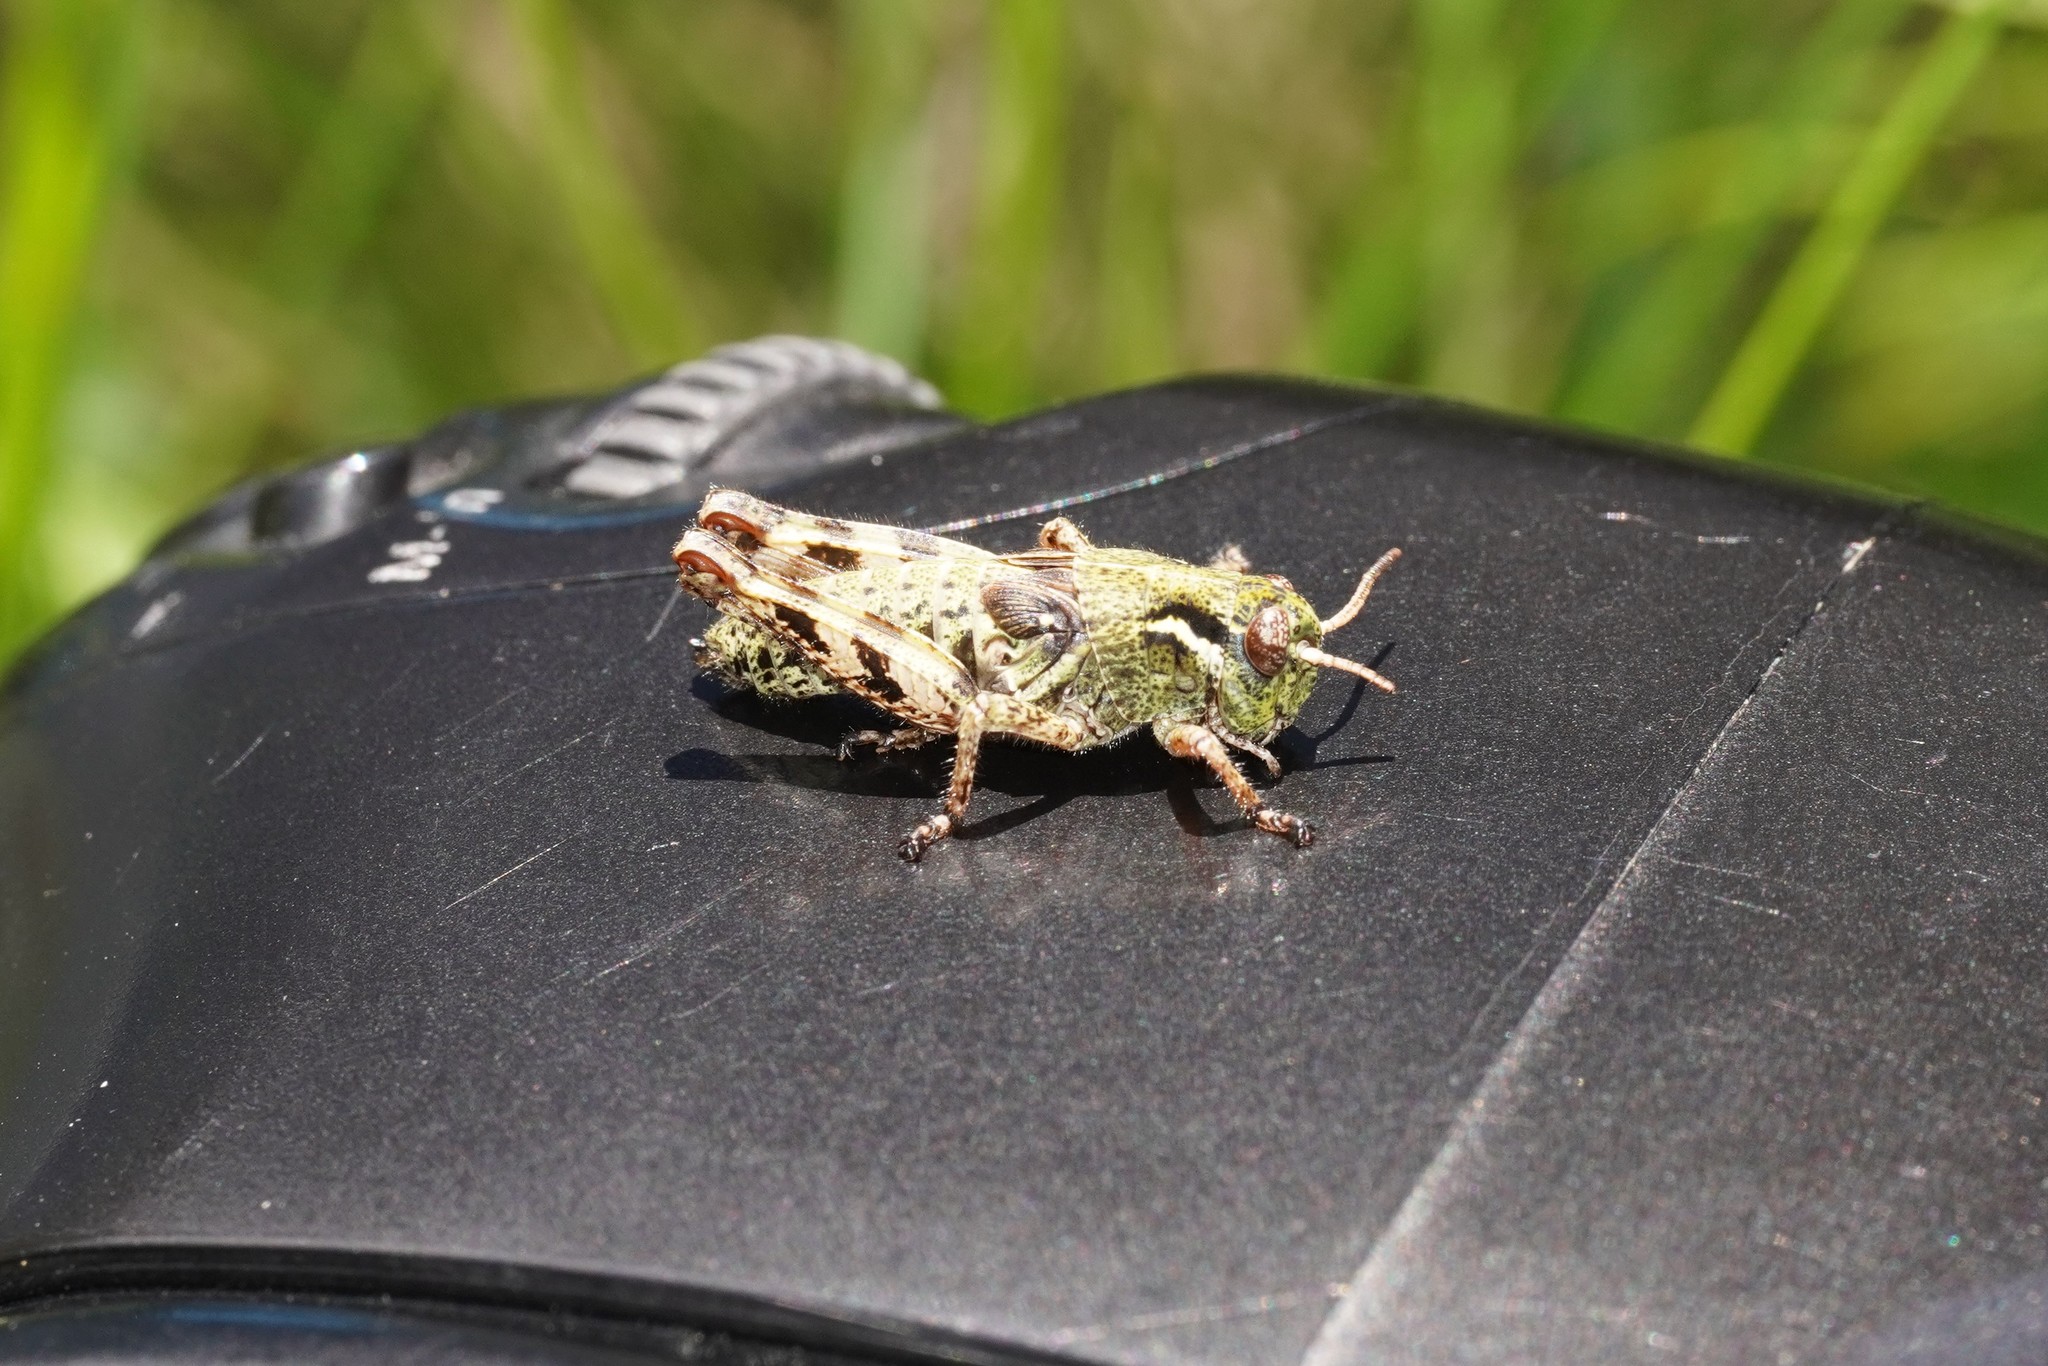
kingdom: Animalia
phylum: Arthropoda
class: Insecta
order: Orthoptera
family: Acrididae
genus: Bohemanella
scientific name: Bohemanella frigida
